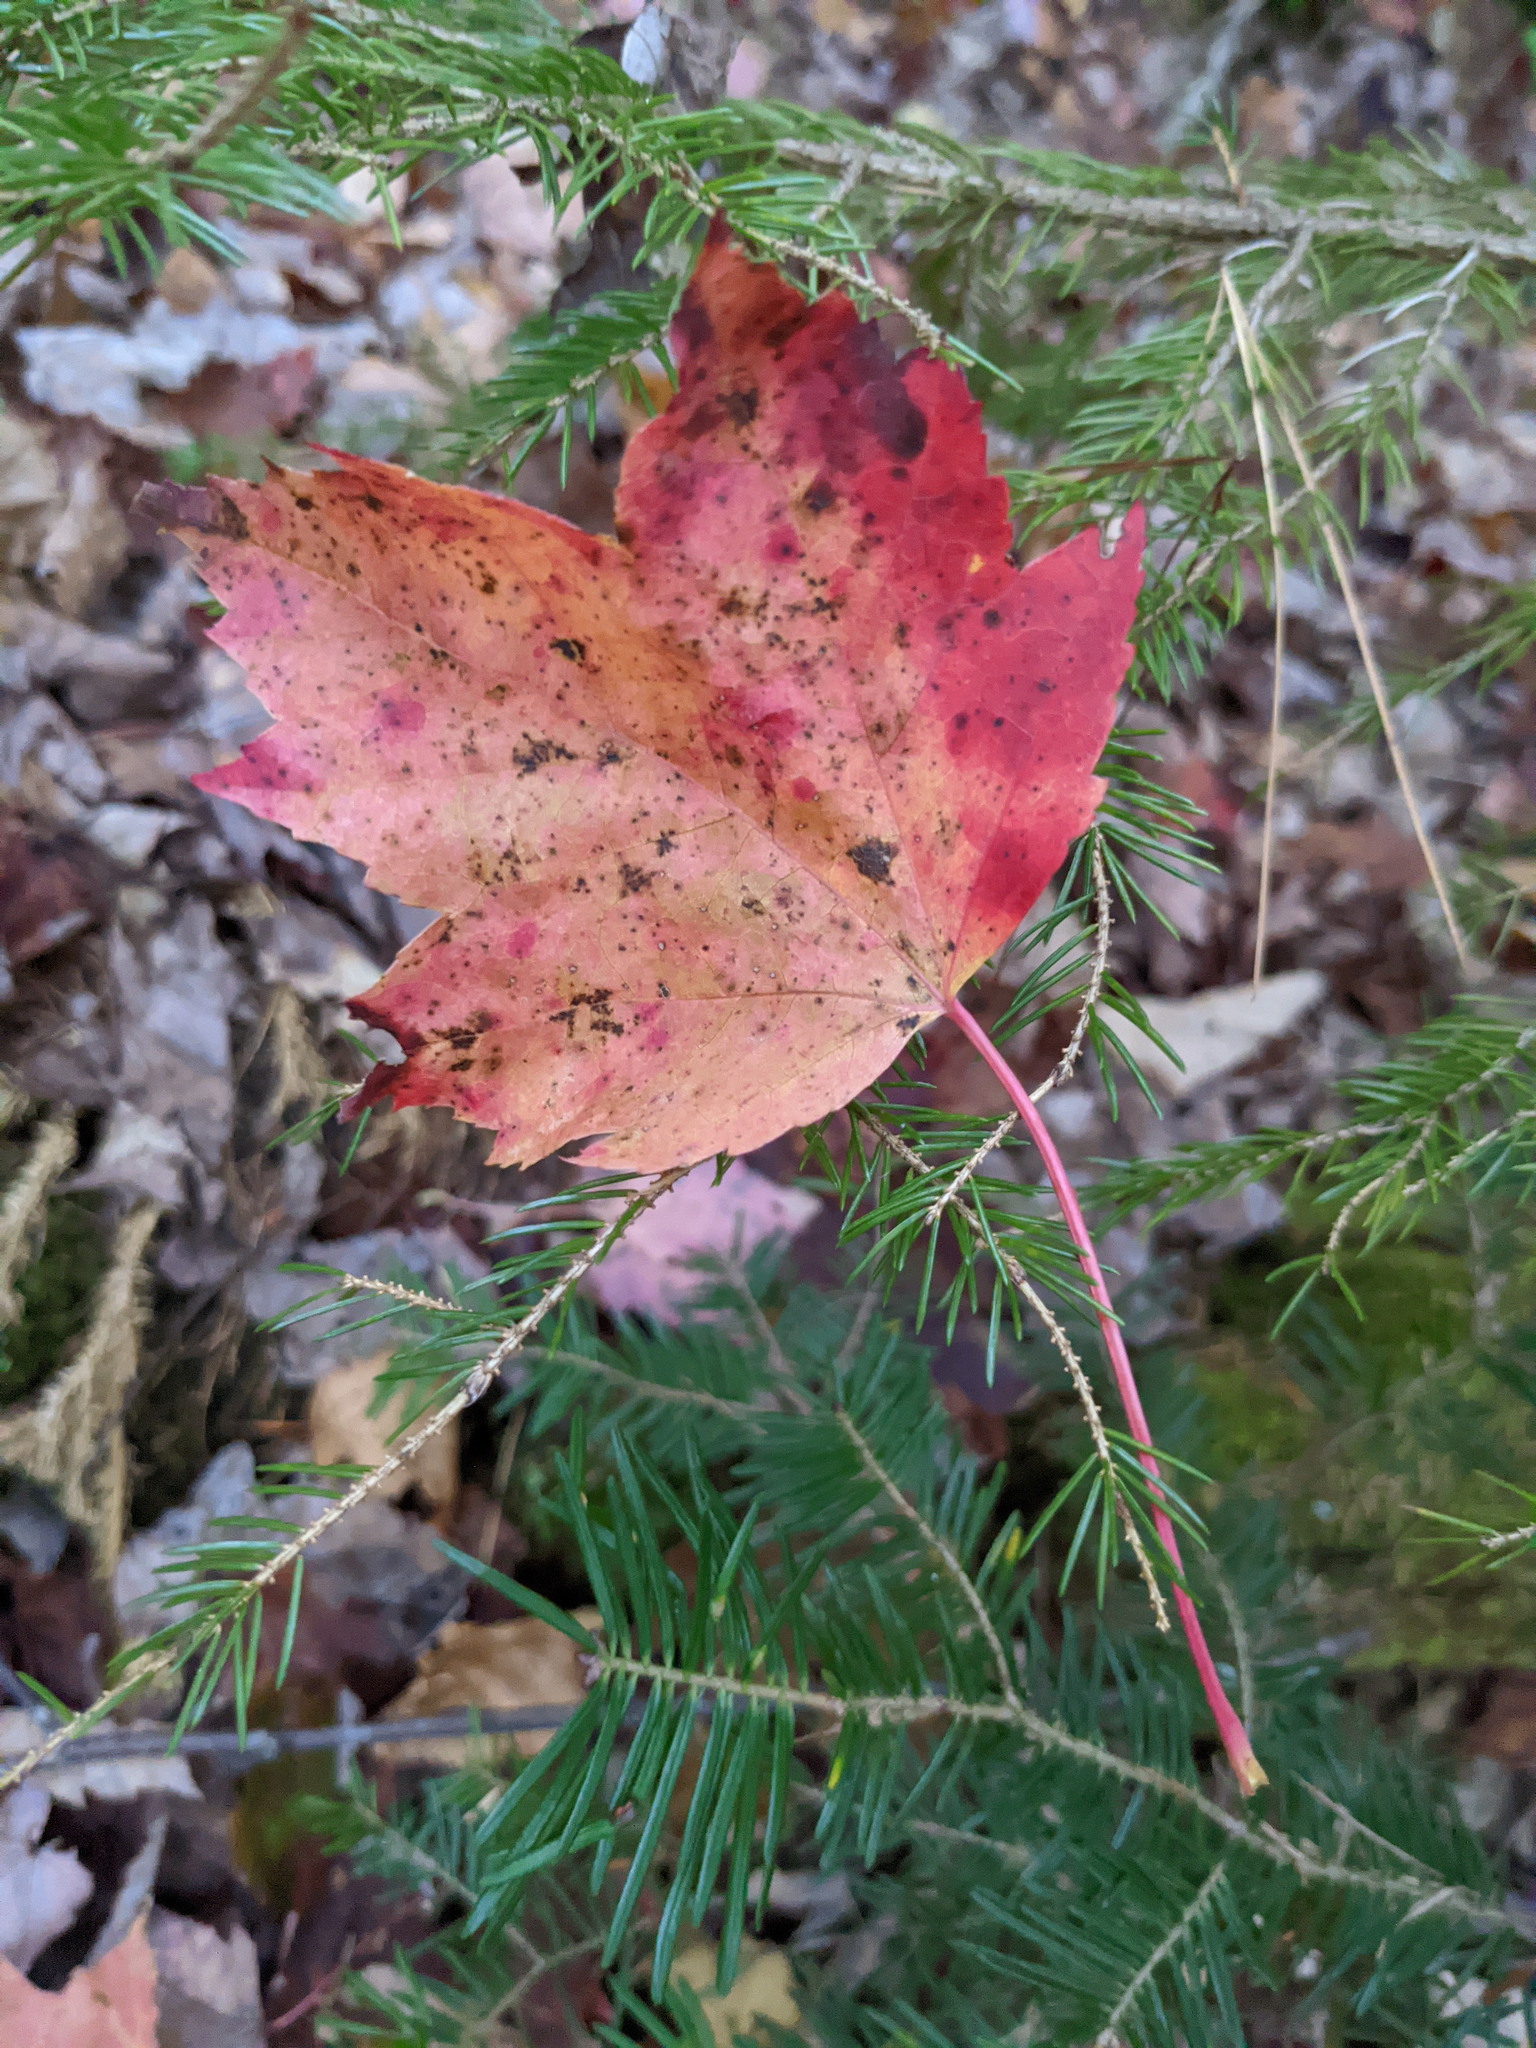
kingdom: Plantae
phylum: Tracheophyta
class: Magnoliopsida
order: Sapindales
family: Sapindaceae
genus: Acer
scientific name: Acer rubrum
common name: Red maple
